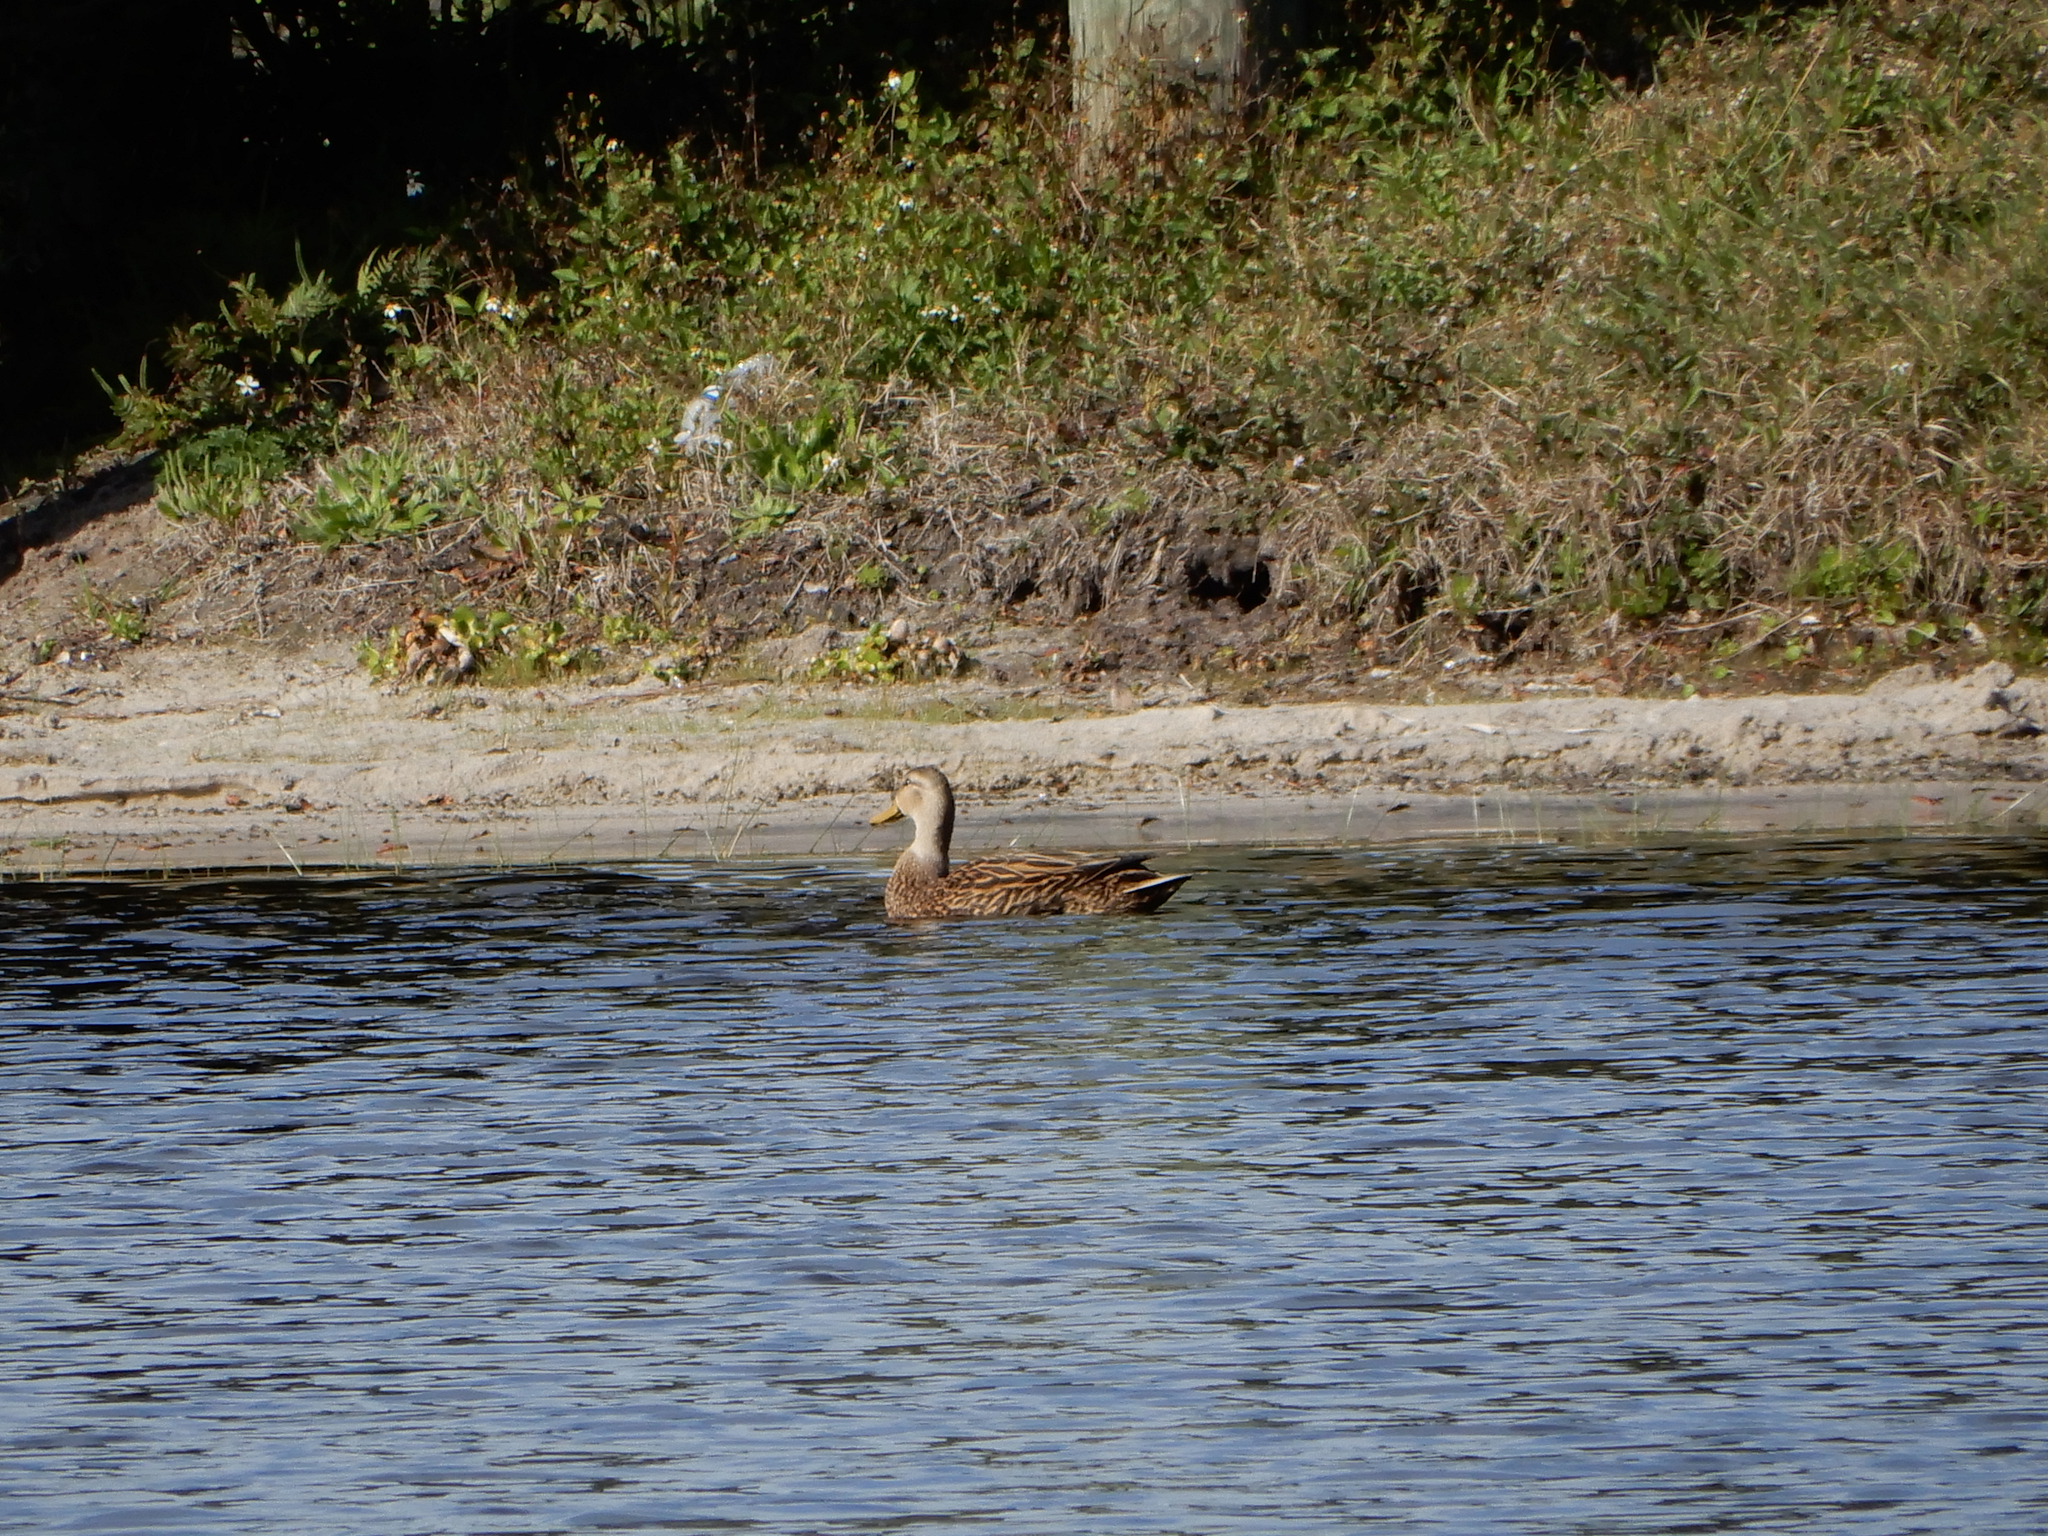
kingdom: Animalia
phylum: Chordata
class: Aves
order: Anseriformes
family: Anatidae
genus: Anas
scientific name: Anas
